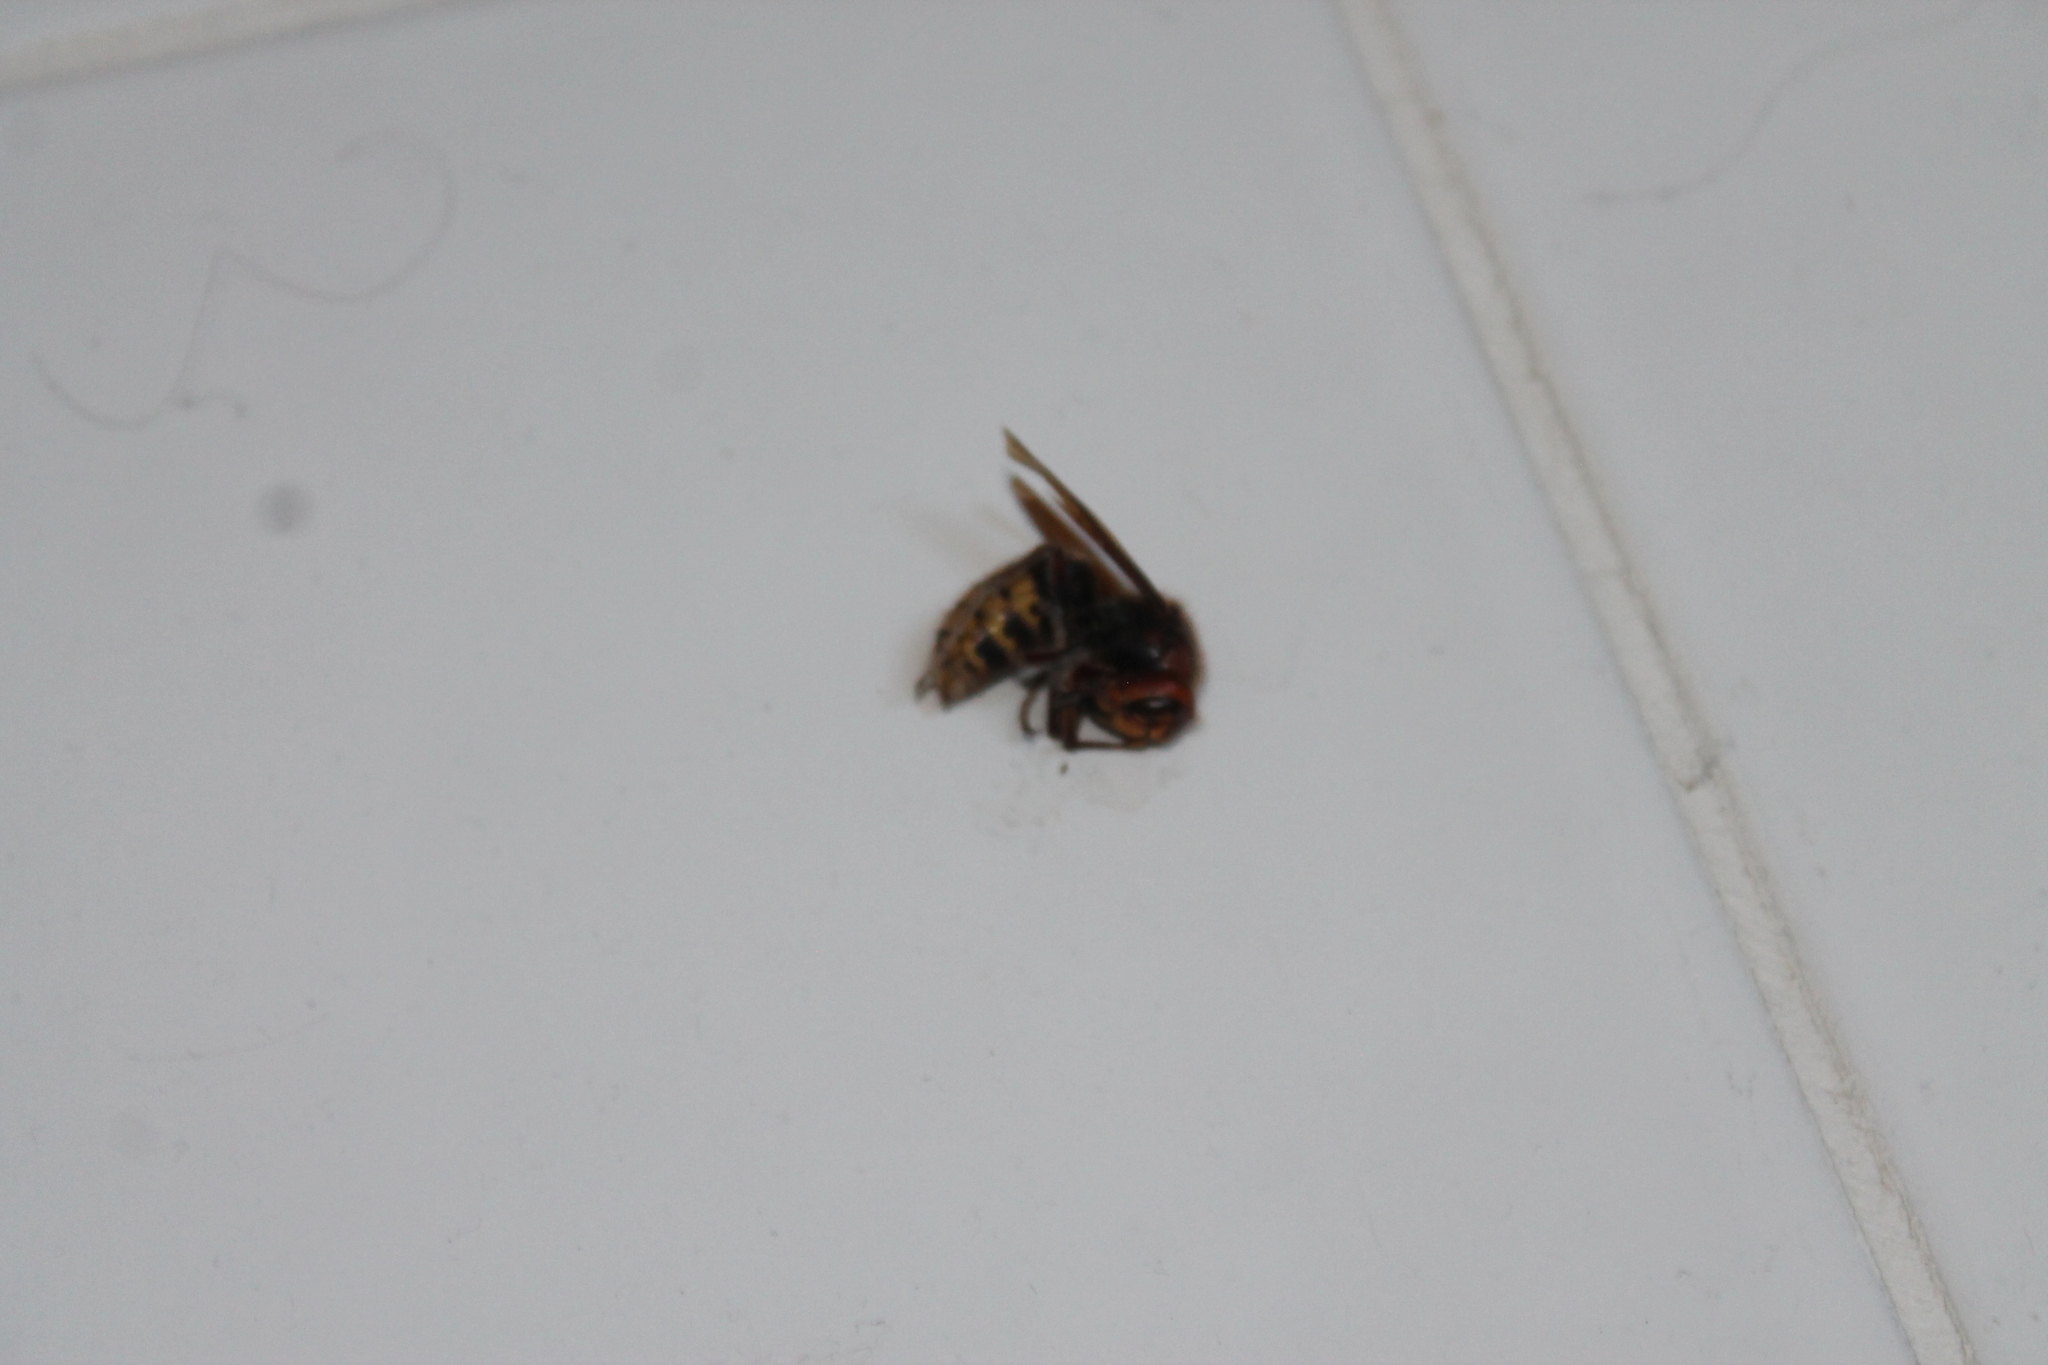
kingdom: Animalia
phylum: Arthropoda
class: Insecta
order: Hymenoptera
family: Vespidae
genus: Vespa
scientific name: Vespa crabro
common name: Hornet
